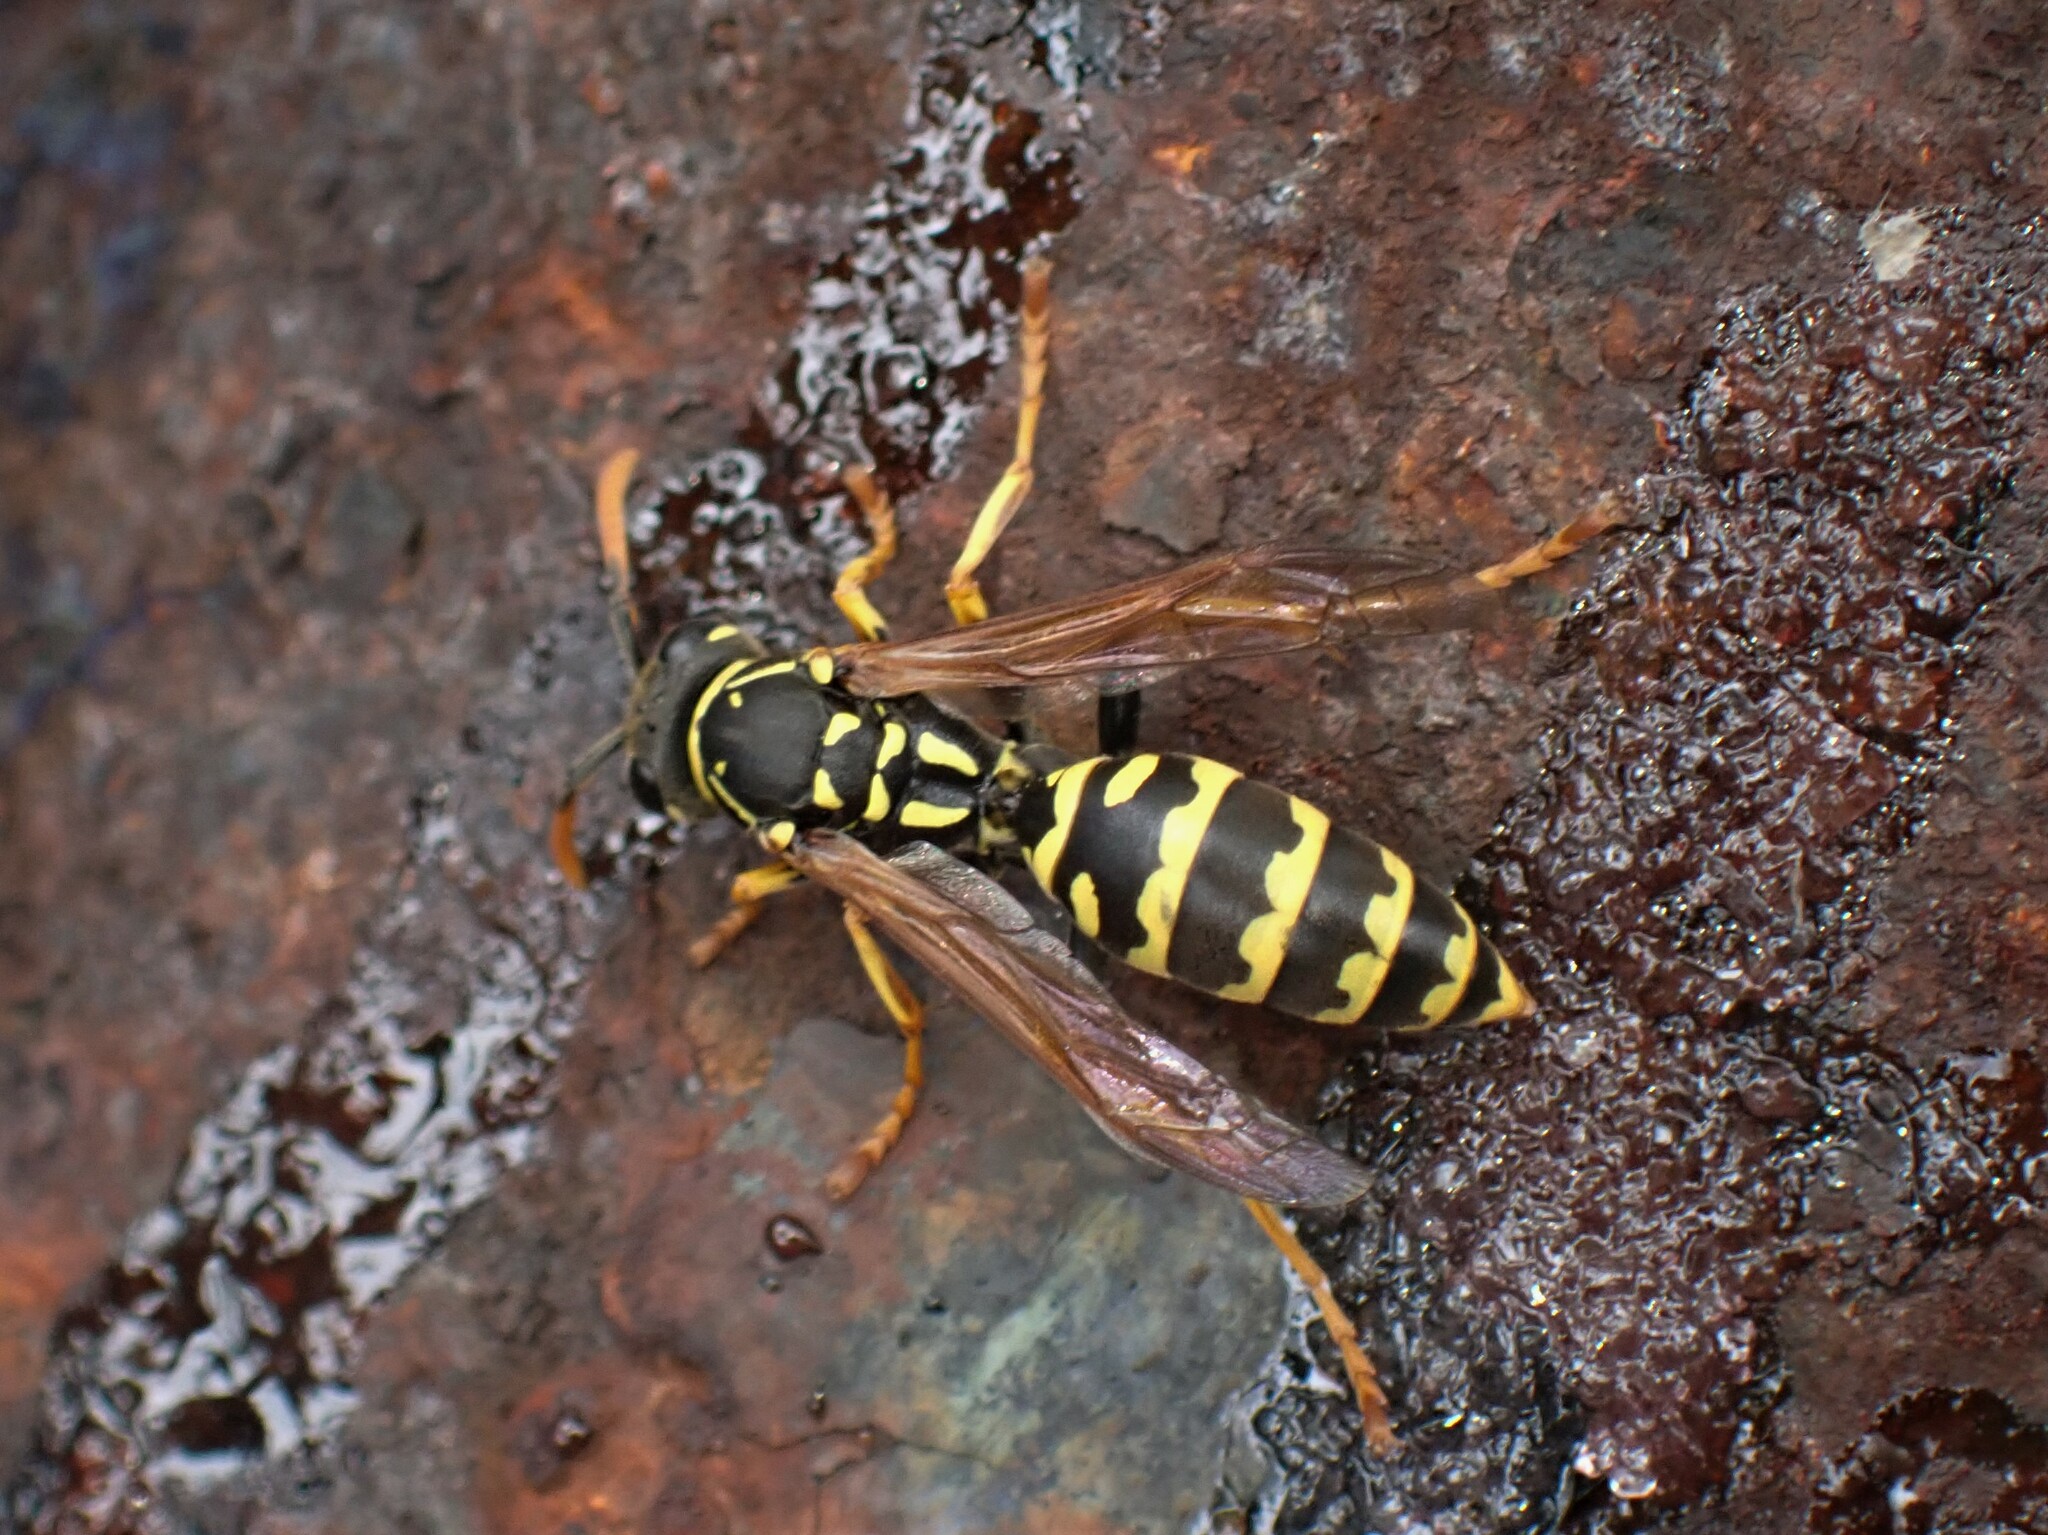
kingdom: Animalia
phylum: Arthropoda
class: Insecta
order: Hymenoptera
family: Eumenidae
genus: Polistes
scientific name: Polistes dominula
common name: Paper wasp
